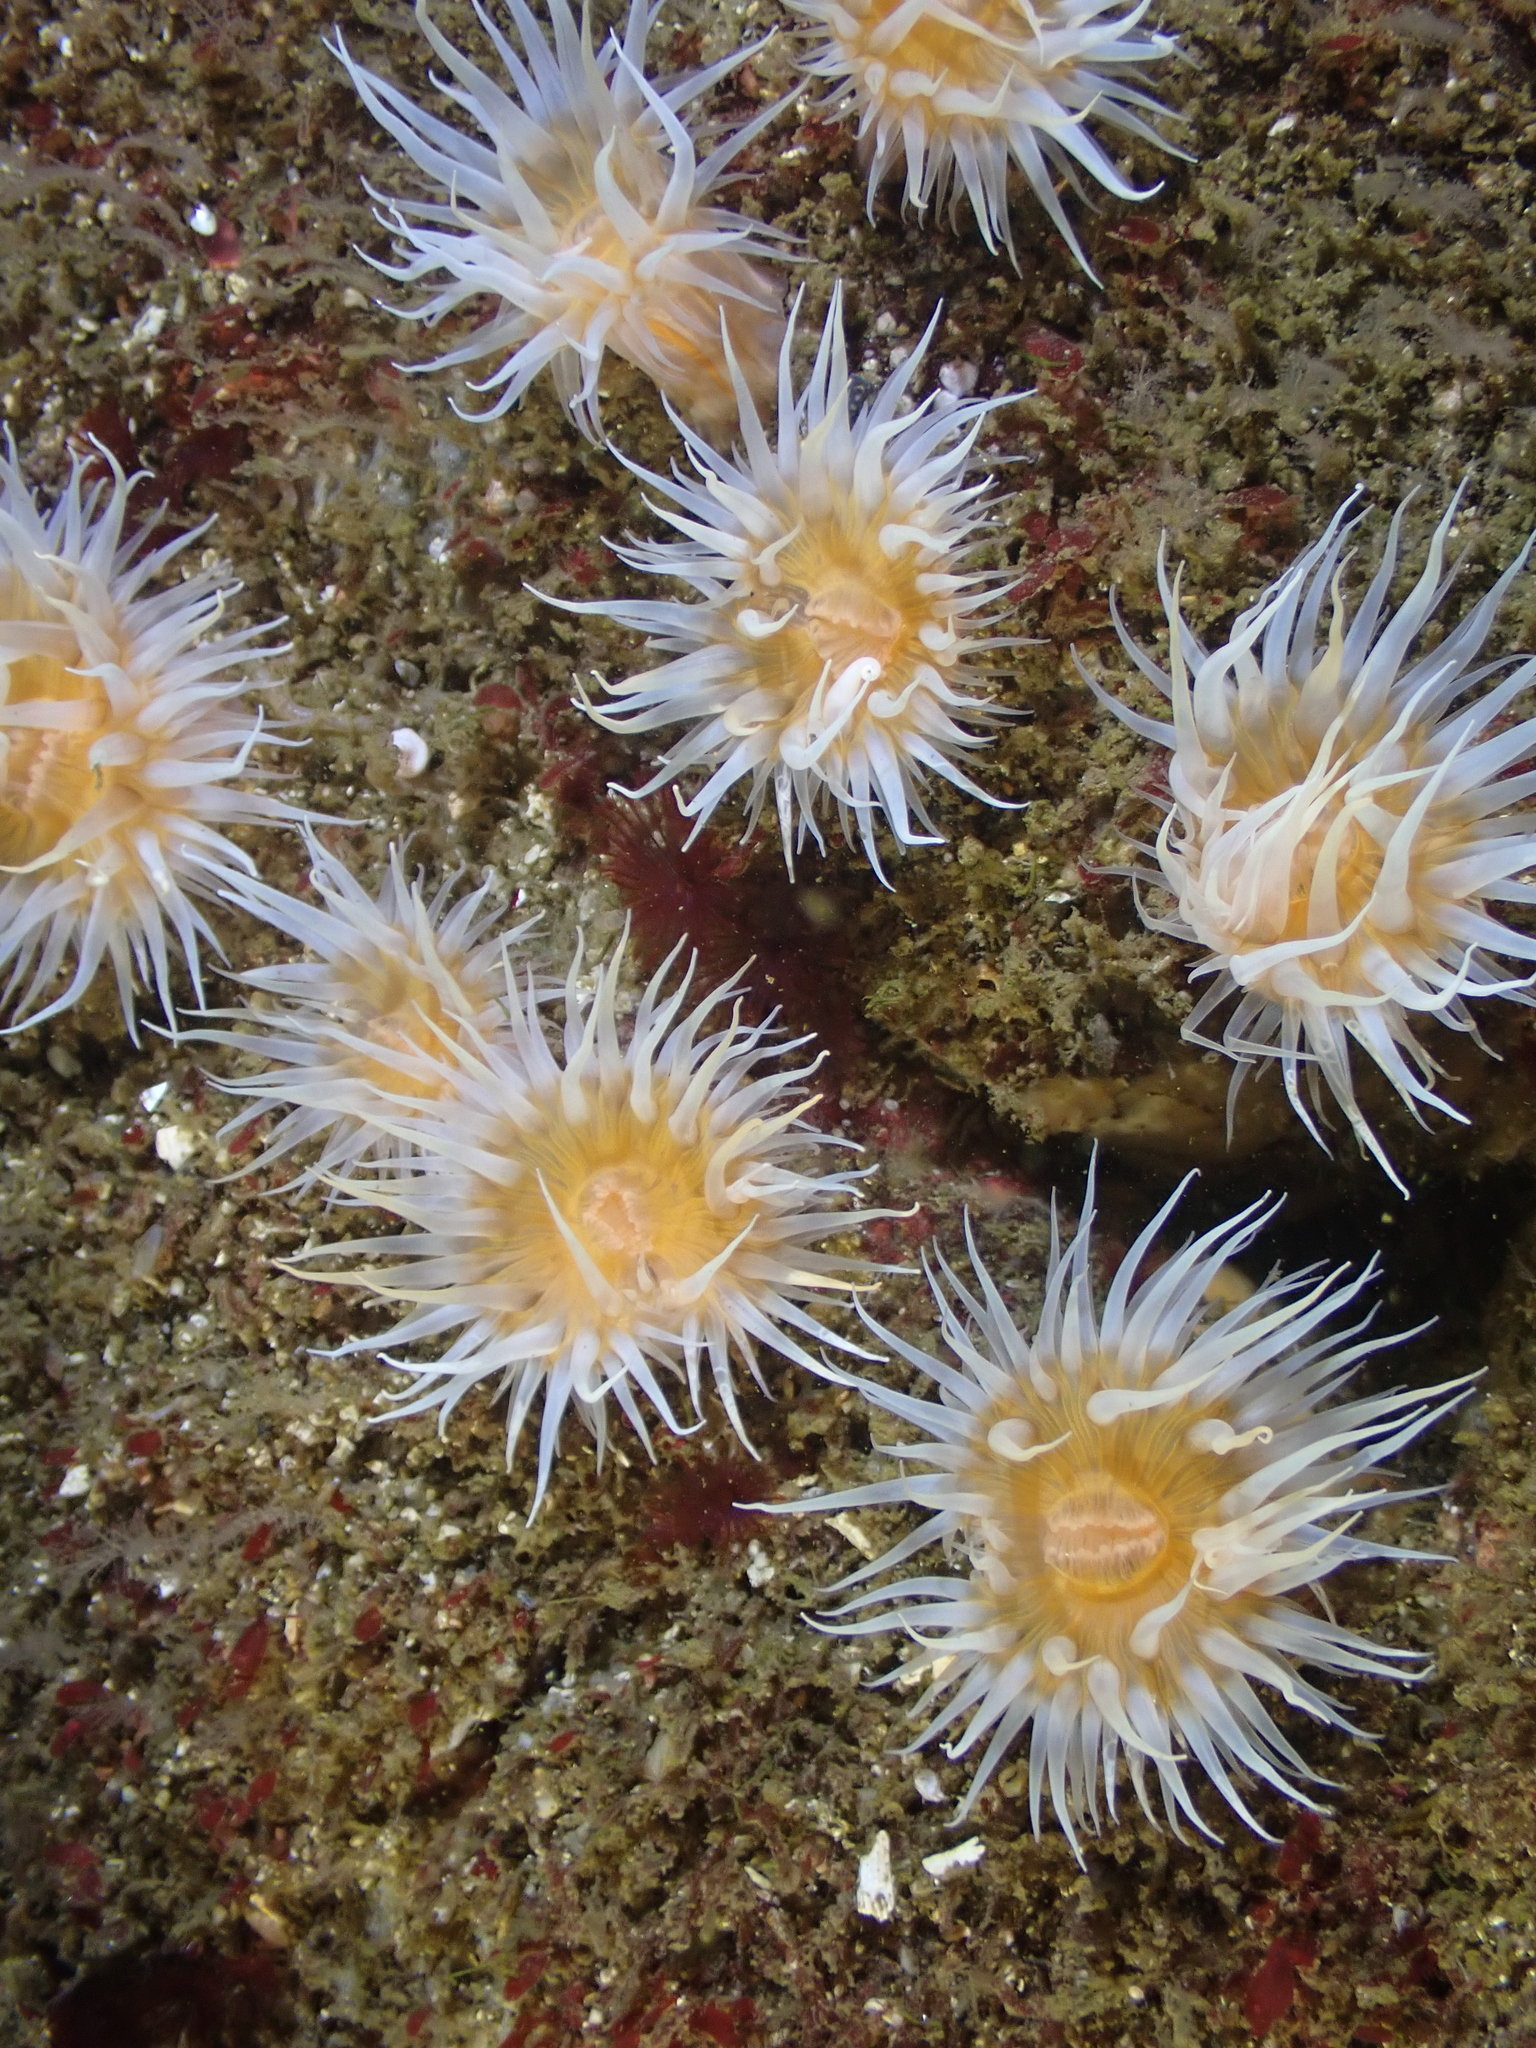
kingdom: Animalia
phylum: Cnidaria
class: Anthozoa
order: Actiniaria
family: Sagartiidae
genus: Anthothoe
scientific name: Anthothoe chilensis
